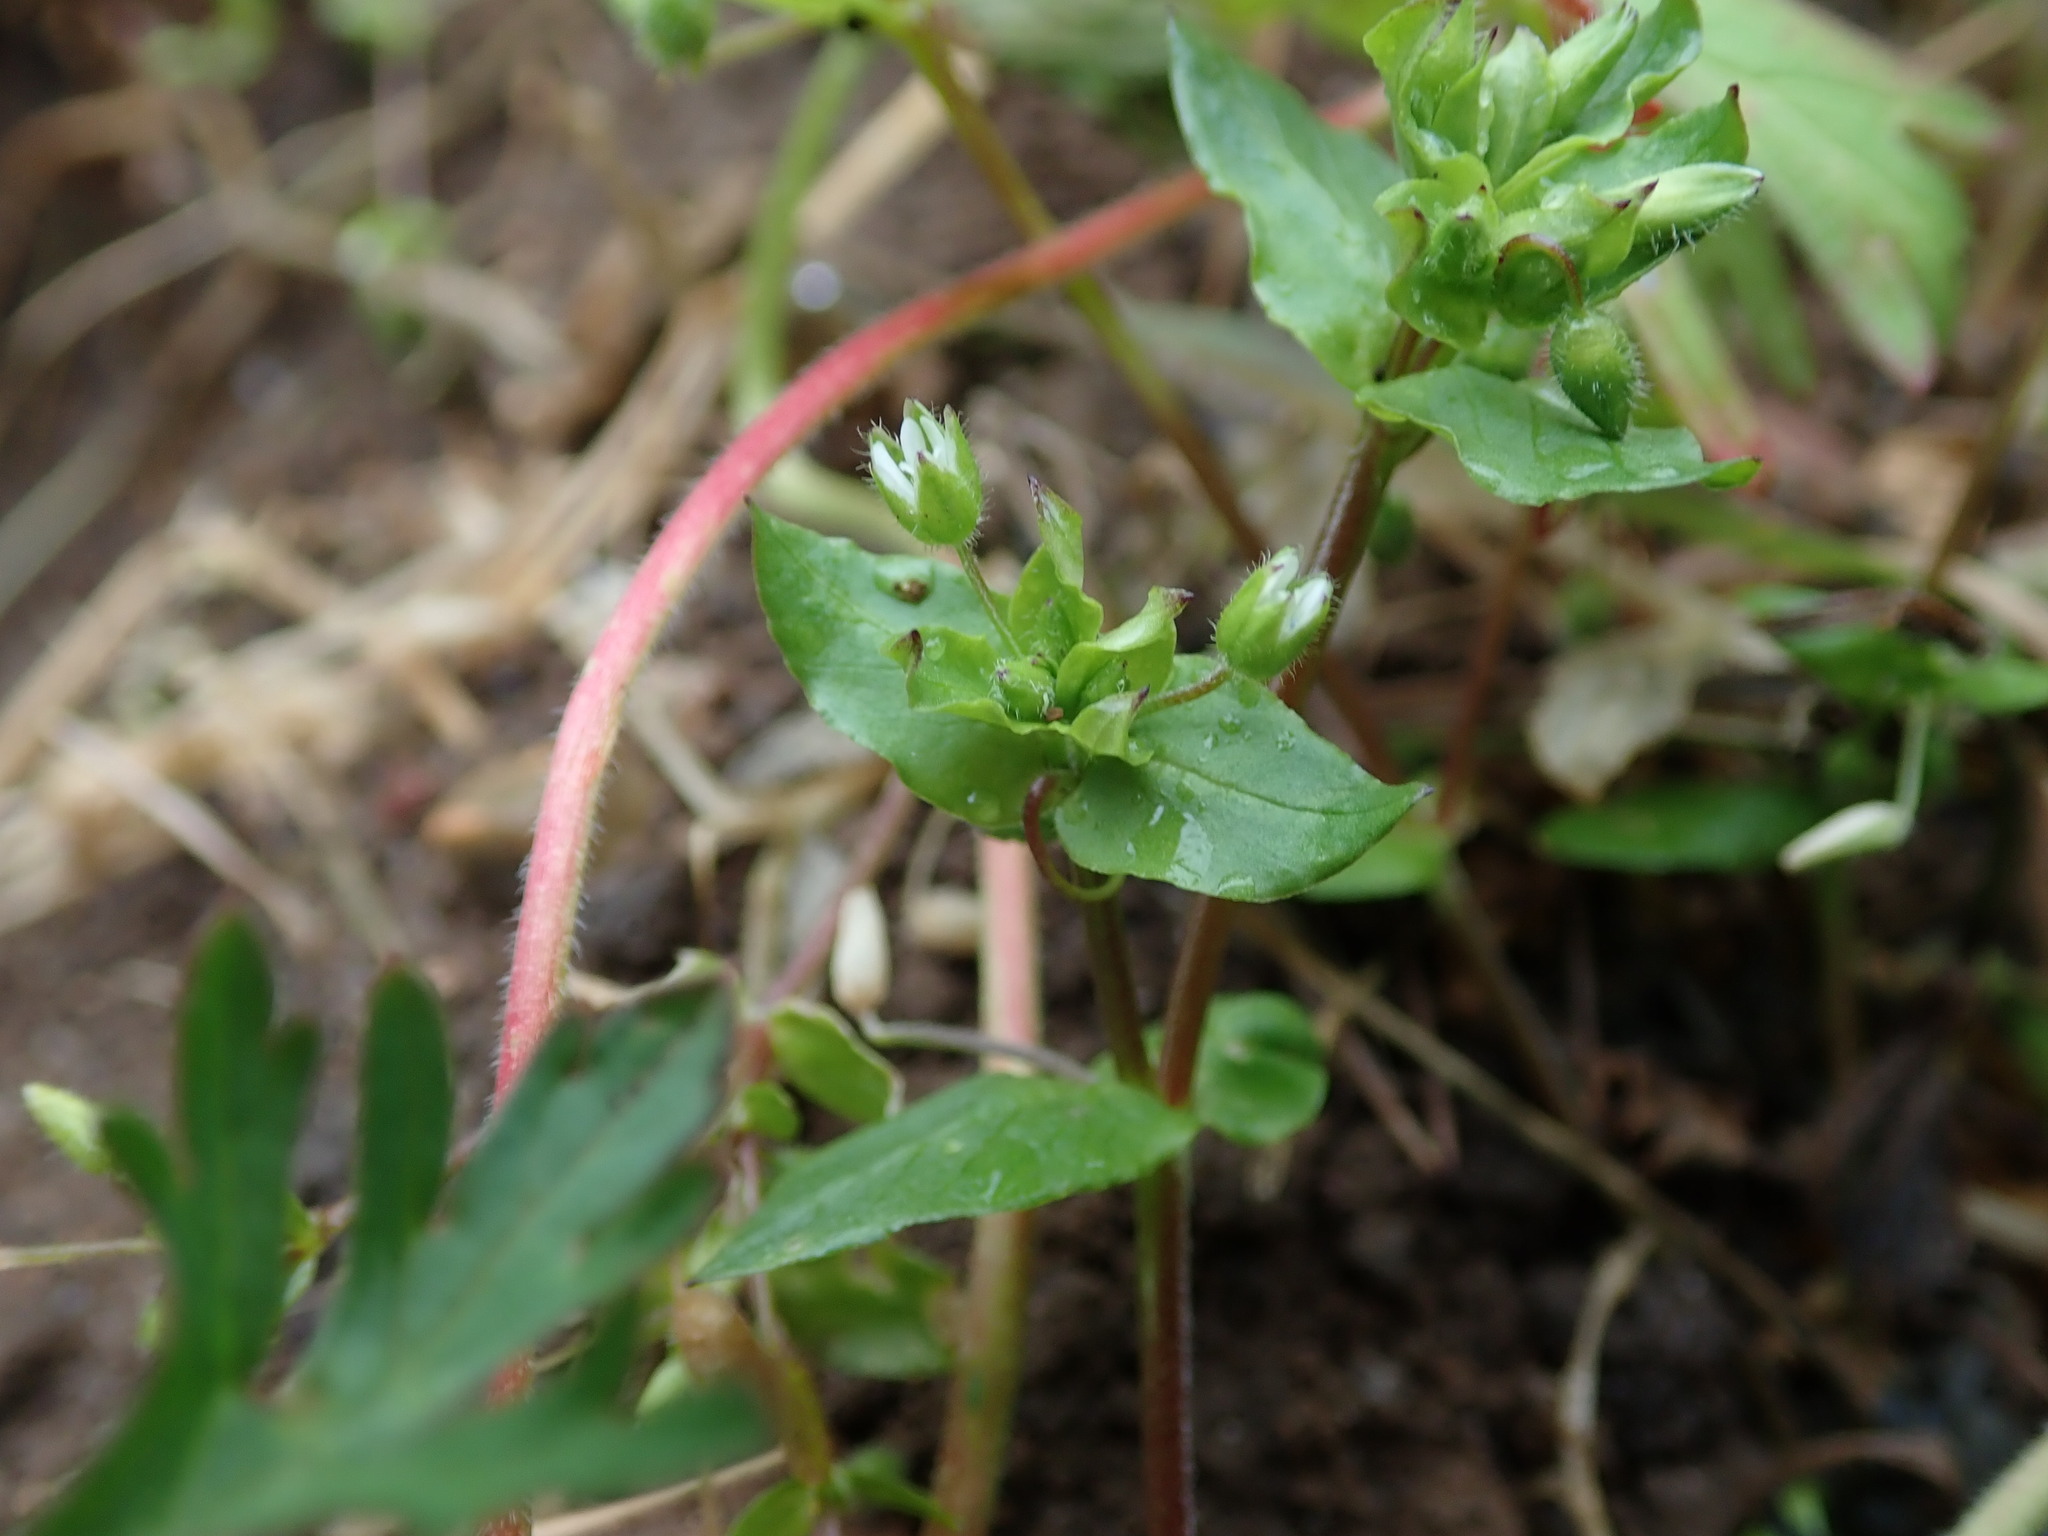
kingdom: Plantae
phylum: Tracheophyta
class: Magnoliopsida
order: Caryophyllales
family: Caryophyllaceae
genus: Stellaria
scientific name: Stellaria media
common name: Common chickweed
